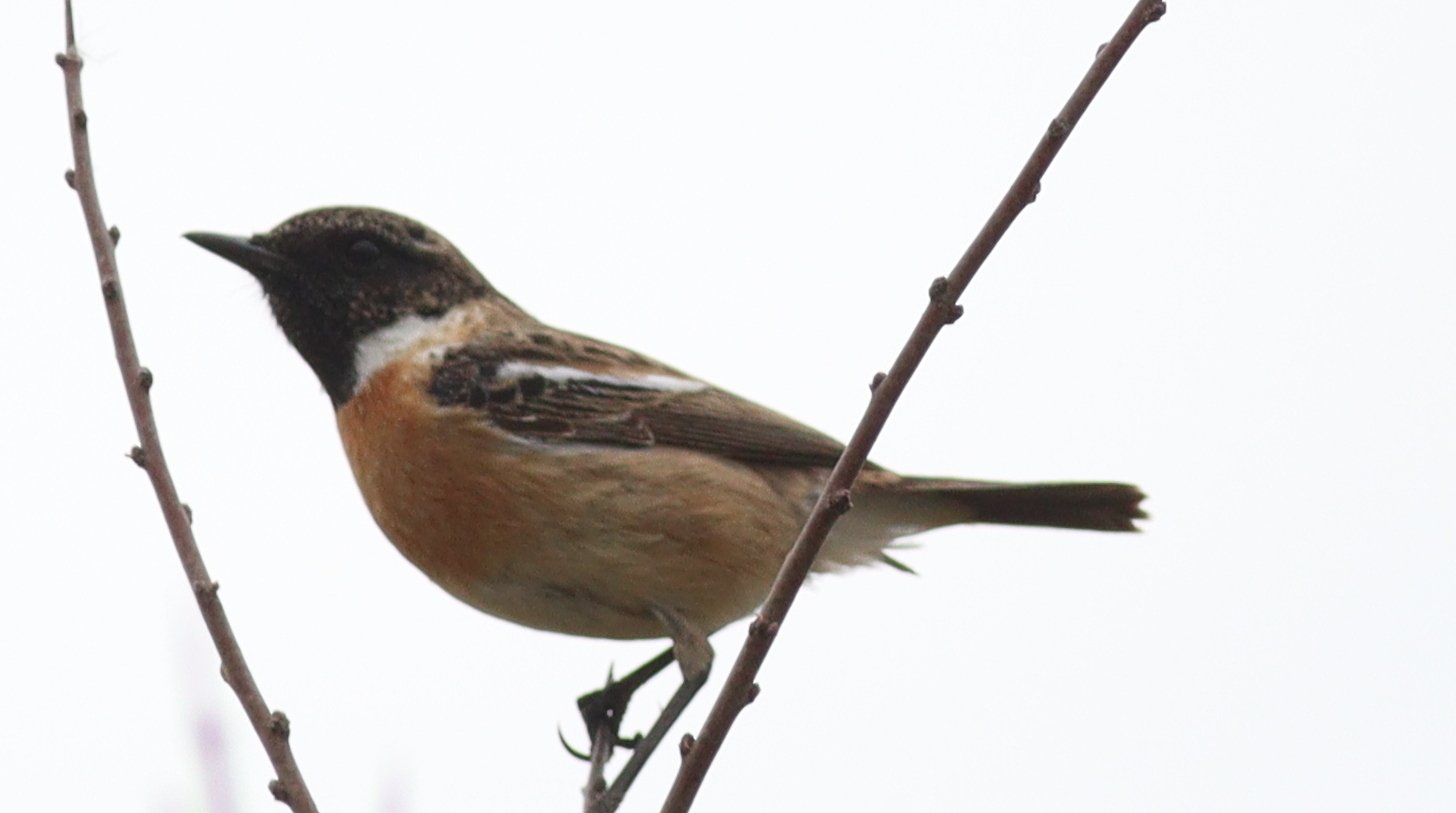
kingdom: Animalia
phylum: Chordata
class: Aves
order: Passeriformes
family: Muscicapidae
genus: Saxicola
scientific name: Saxicola rubicola
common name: European stonechat
